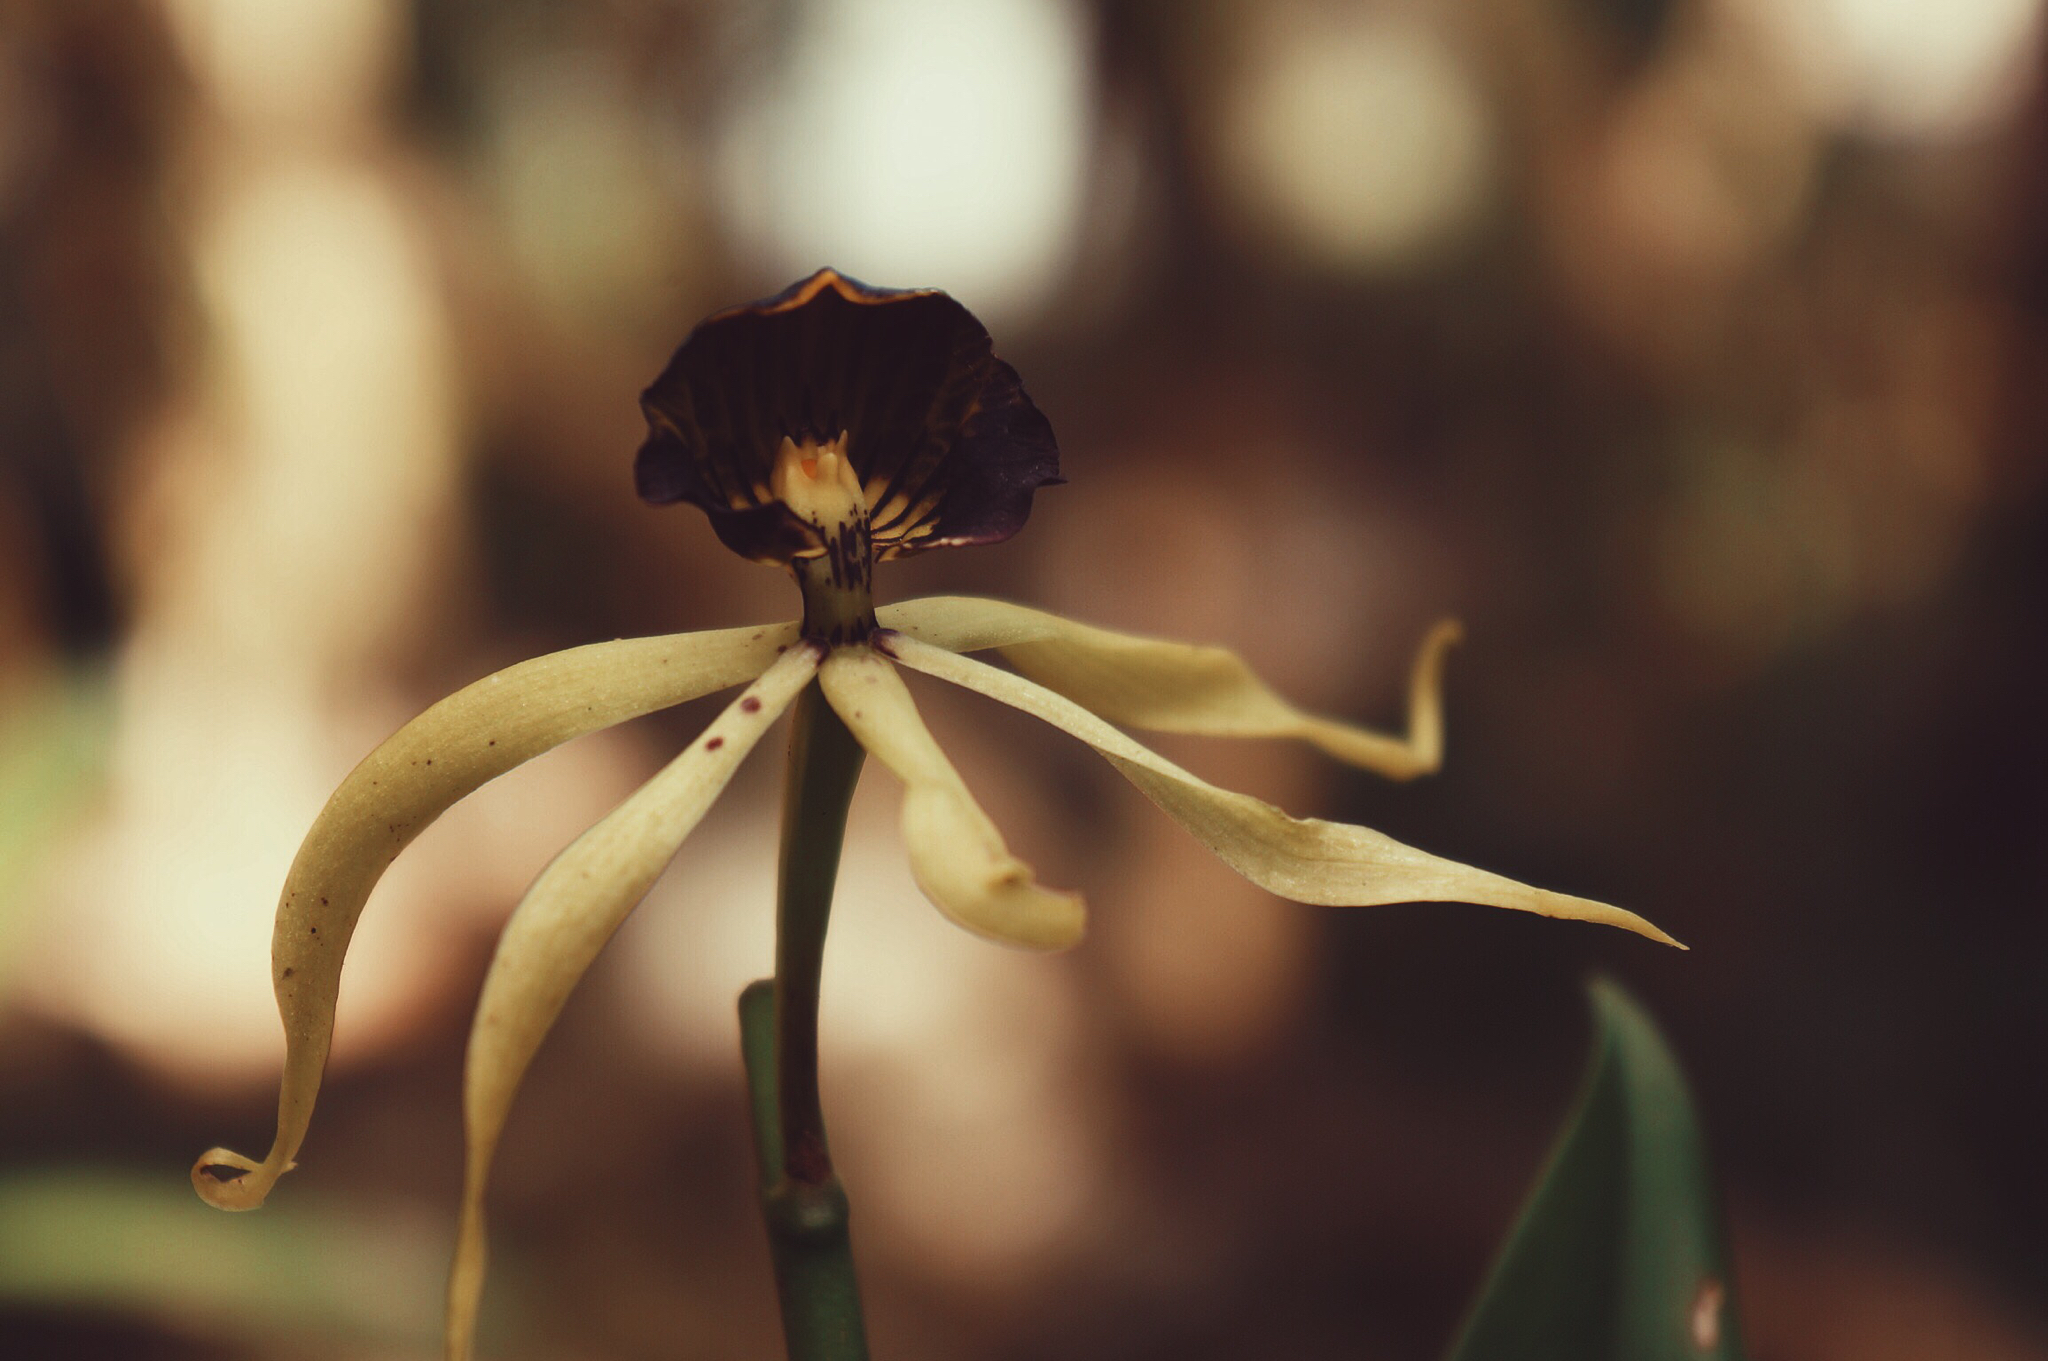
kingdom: Plantae
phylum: Tracheophyta
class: Liliopsida
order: Asparagales
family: Orchidaceae
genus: Prosthechea
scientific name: Prosthechea cochleata
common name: Clamshell orchid
